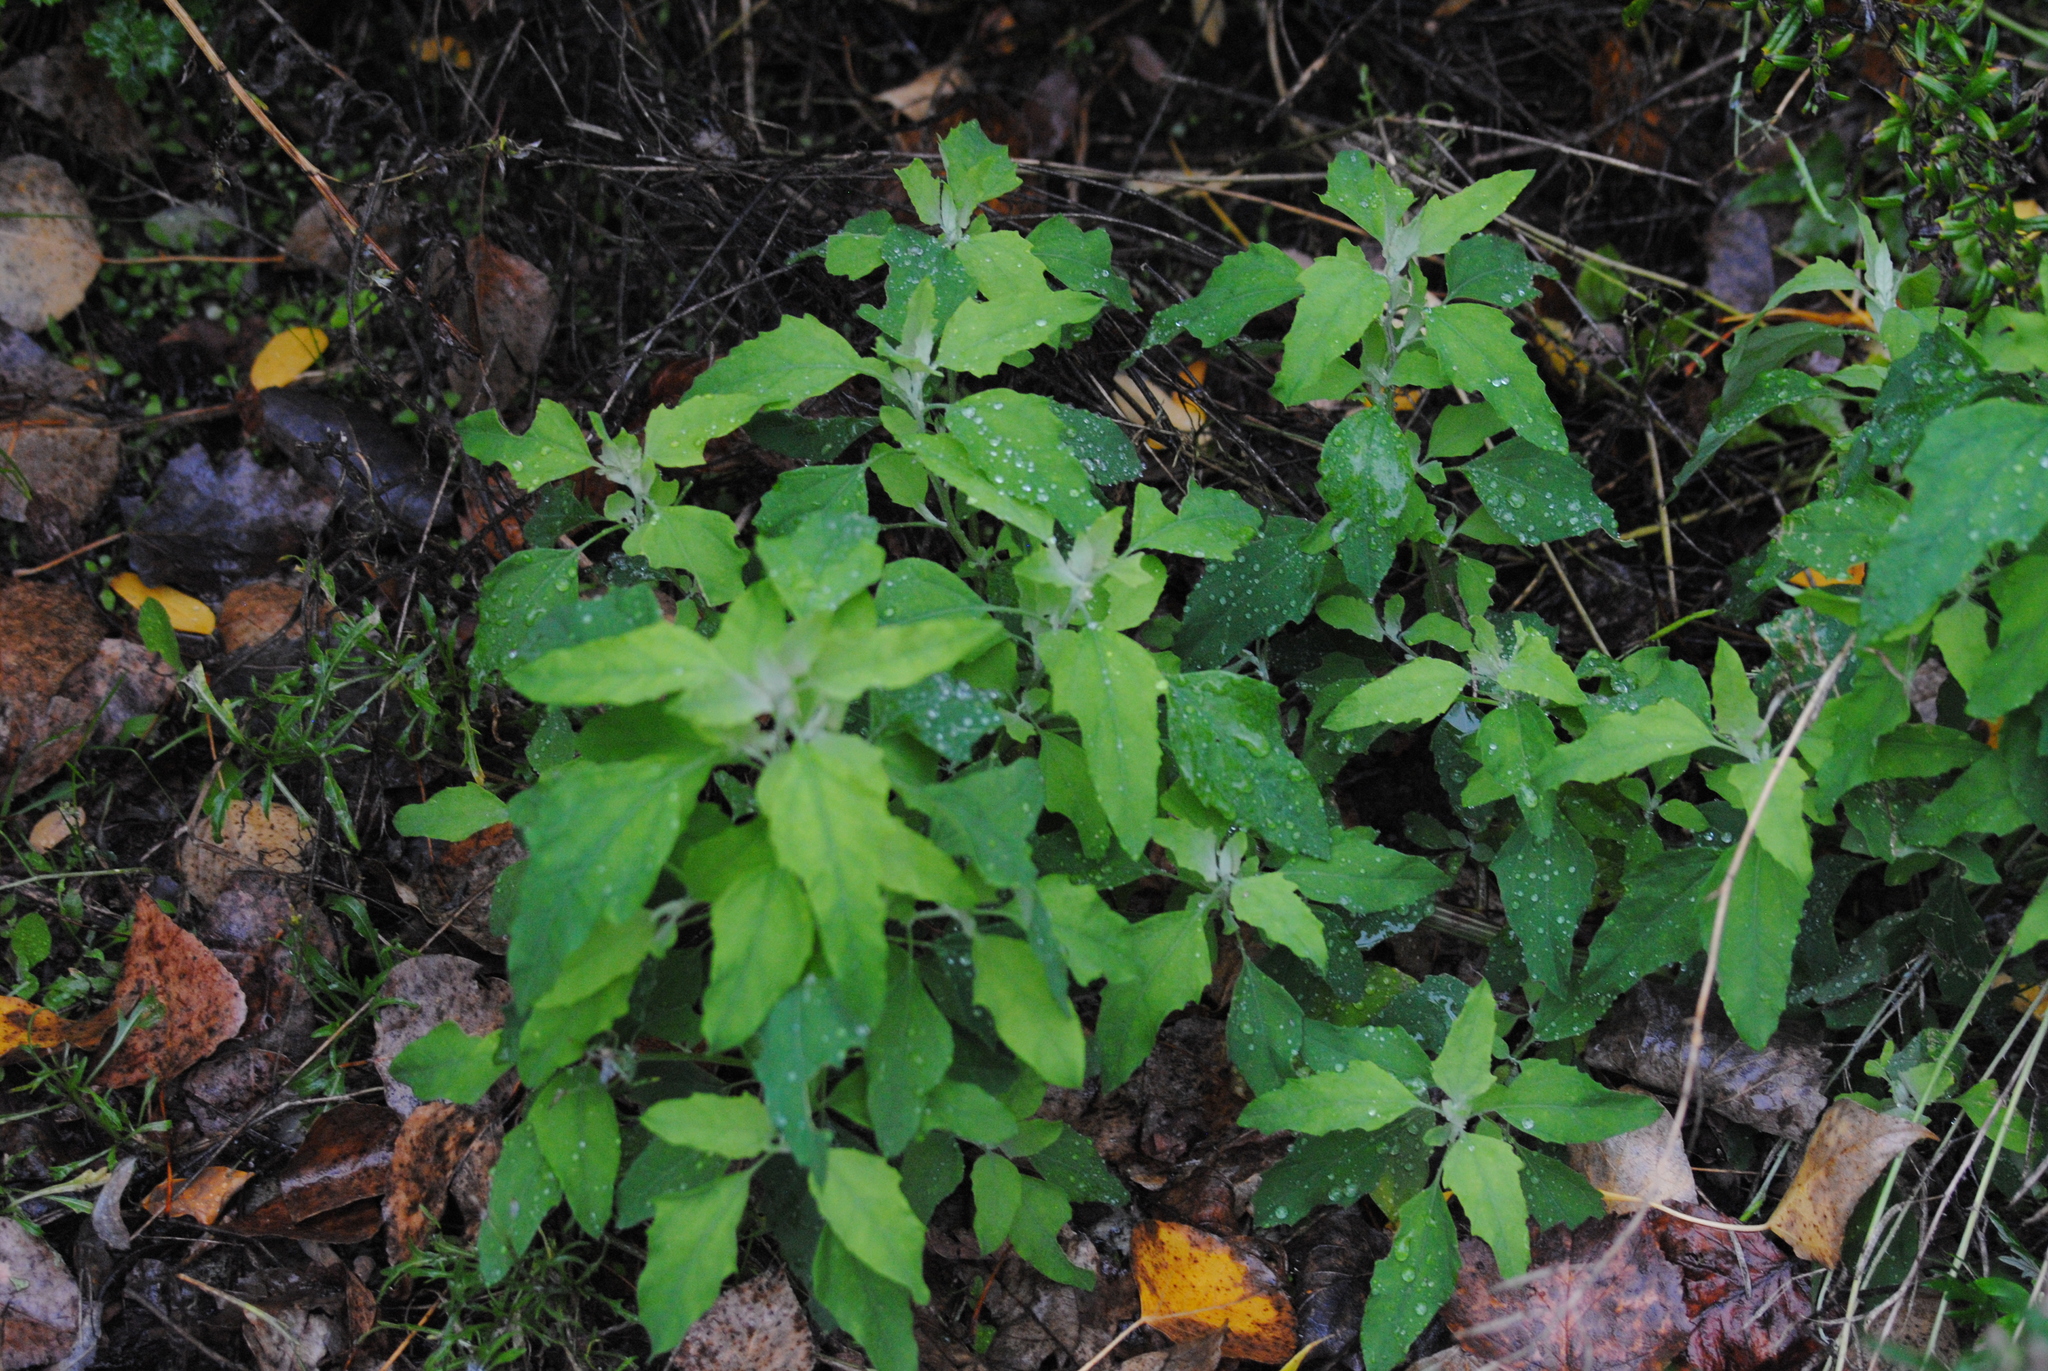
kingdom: Plantae
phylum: Tracheophyta
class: Magnoliopsida
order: Caryophyllales
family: Amaranthaceae
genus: Chenopodium
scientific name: Chenopodium album
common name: Fat-hen
